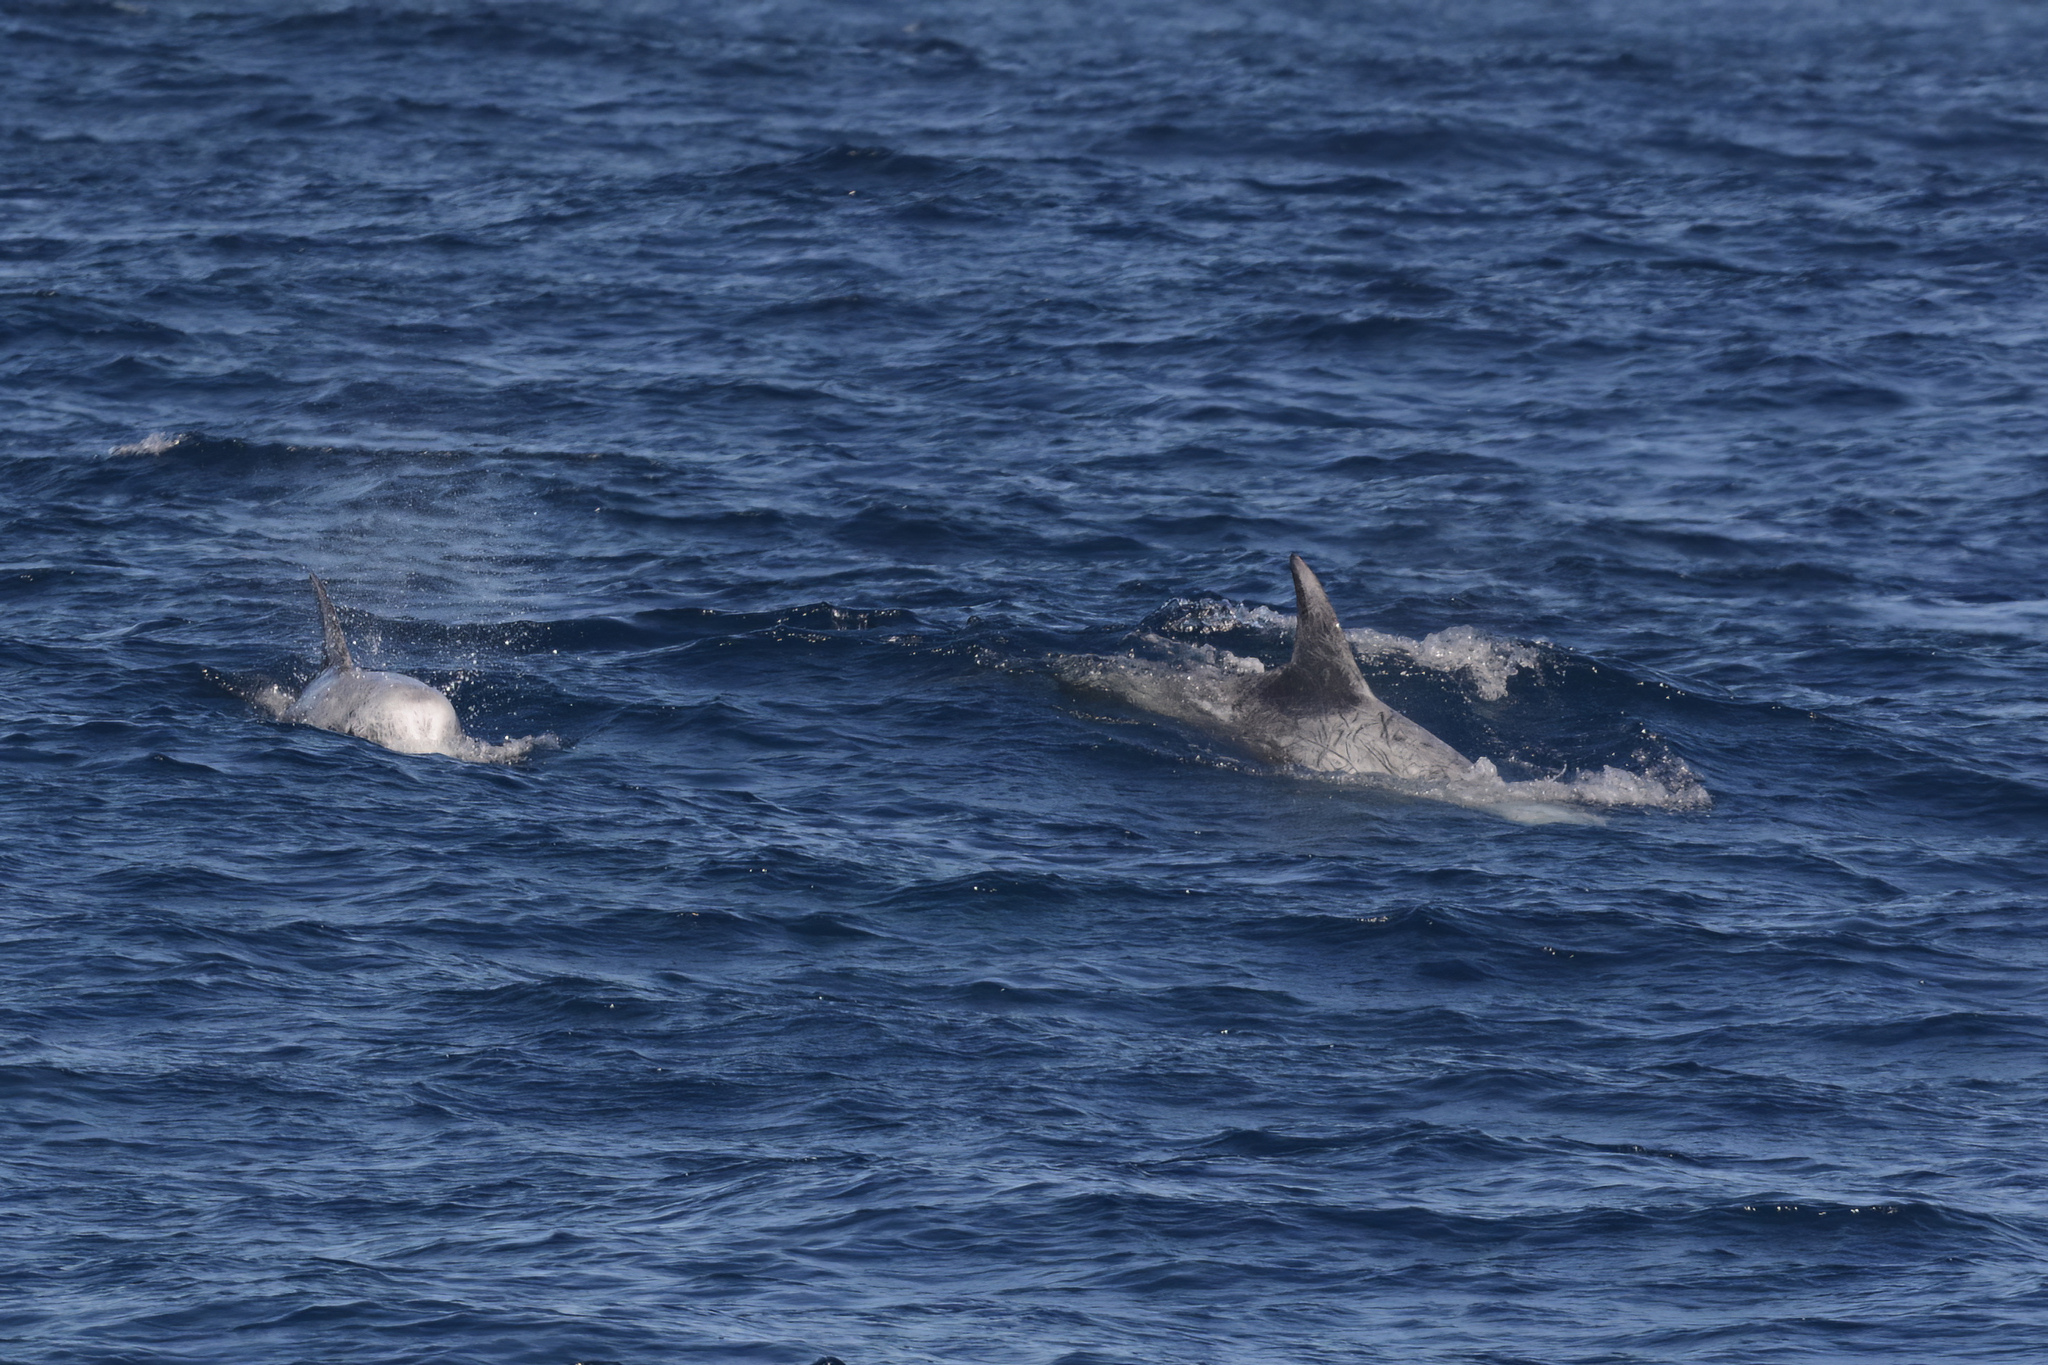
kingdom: Animalia
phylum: Chordata
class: Mammalia
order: Cetacea
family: Delphinidae
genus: Grampus
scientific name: Grampus griseus
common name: Risso's dolphin
